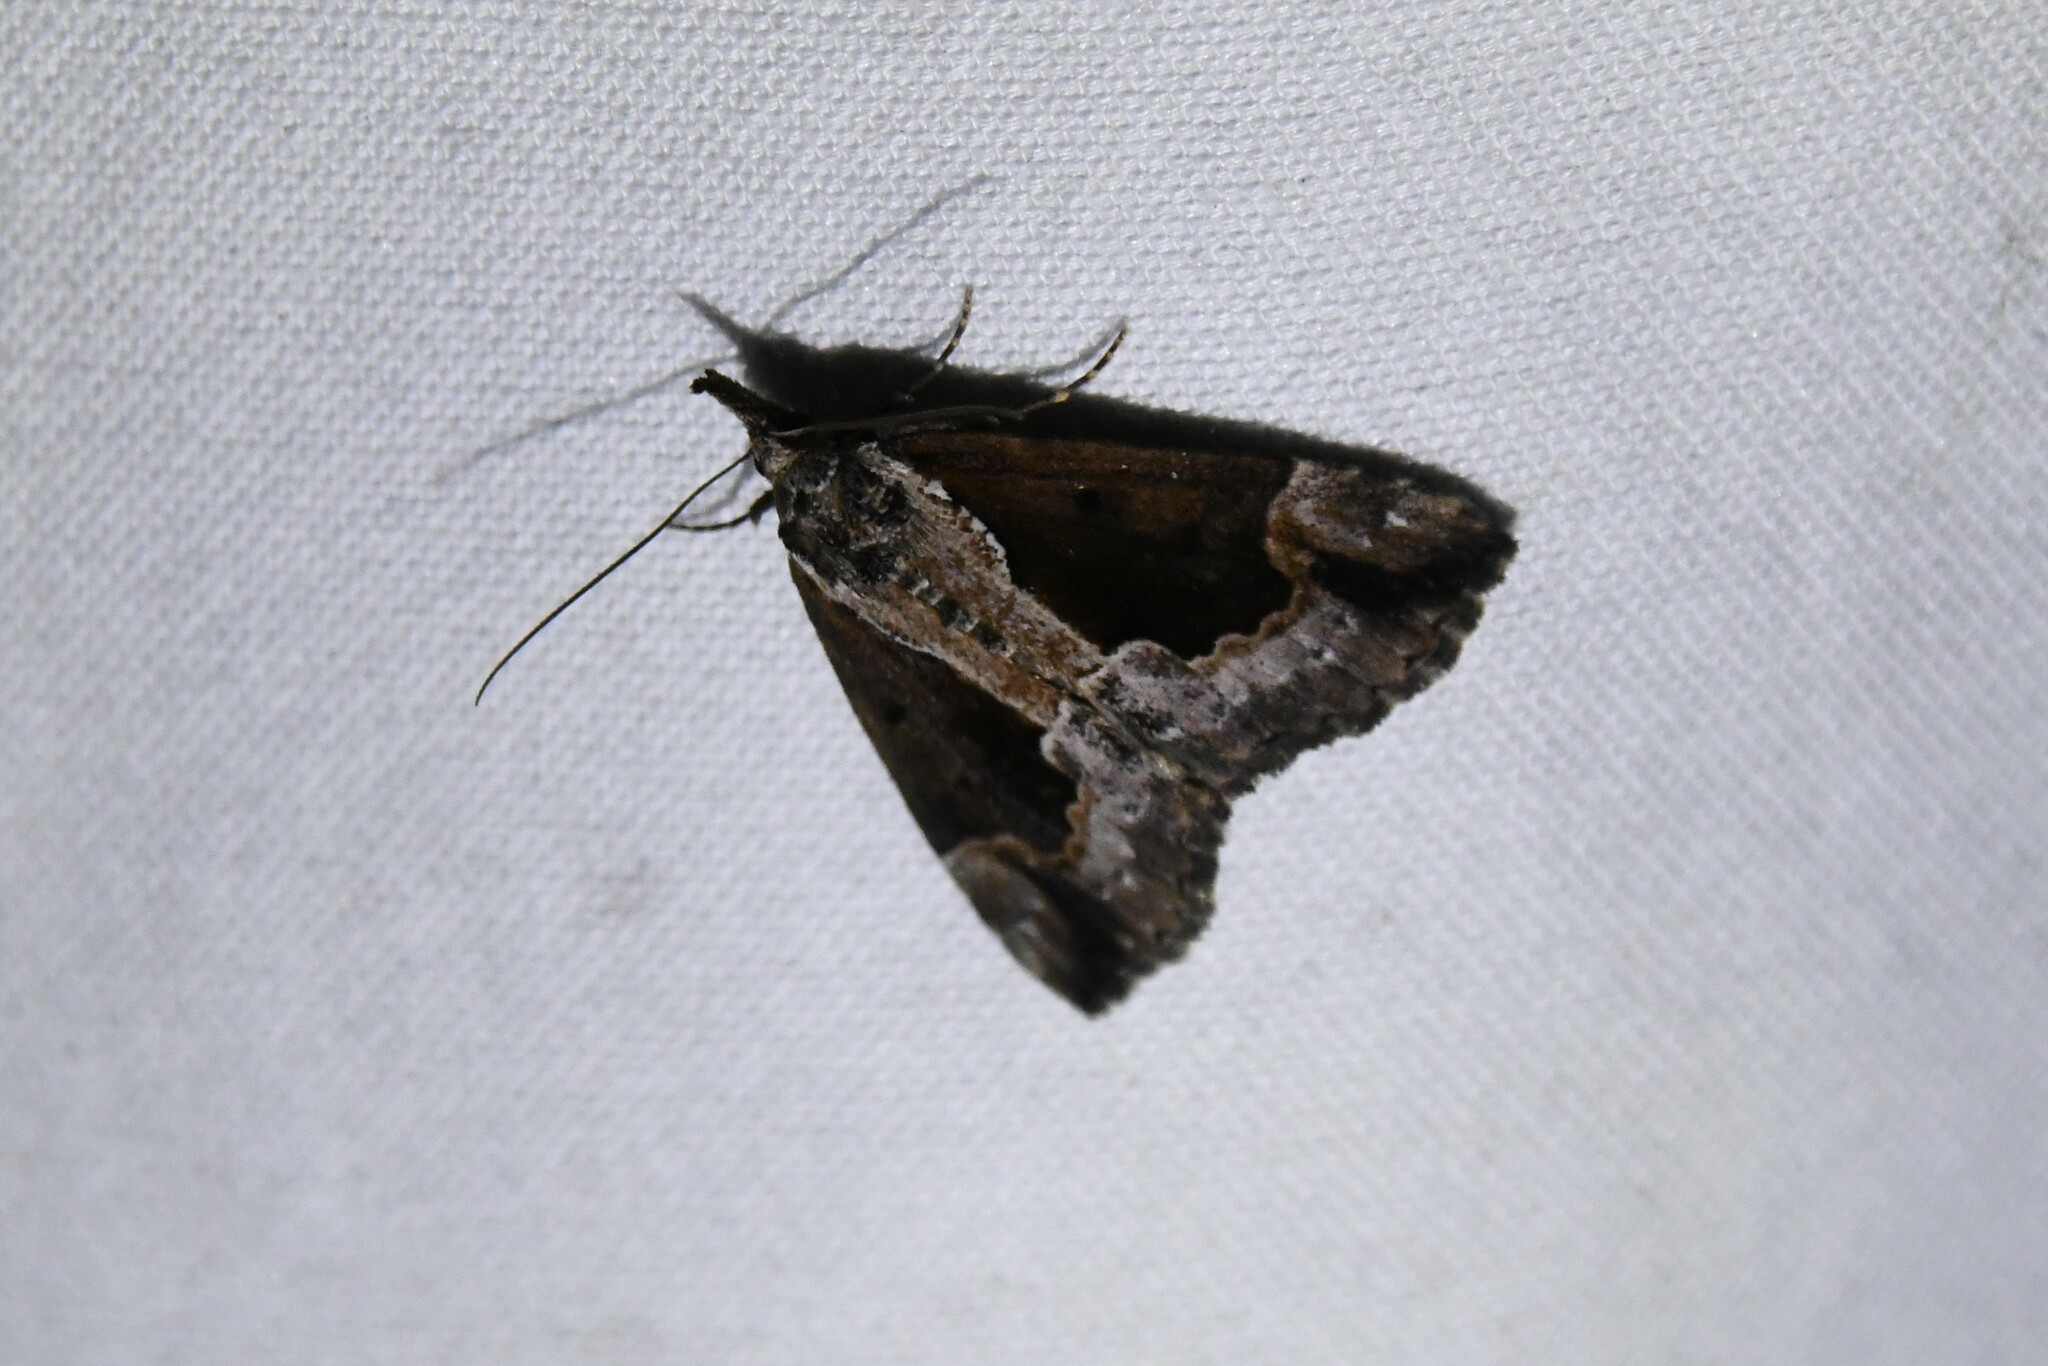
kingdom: Animalia
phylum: Arthropoda
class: Insecta
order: Lepidoptera
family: Erebidae
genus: Hypena
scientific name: Hypena baltimoralis
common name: Baltimore snout
